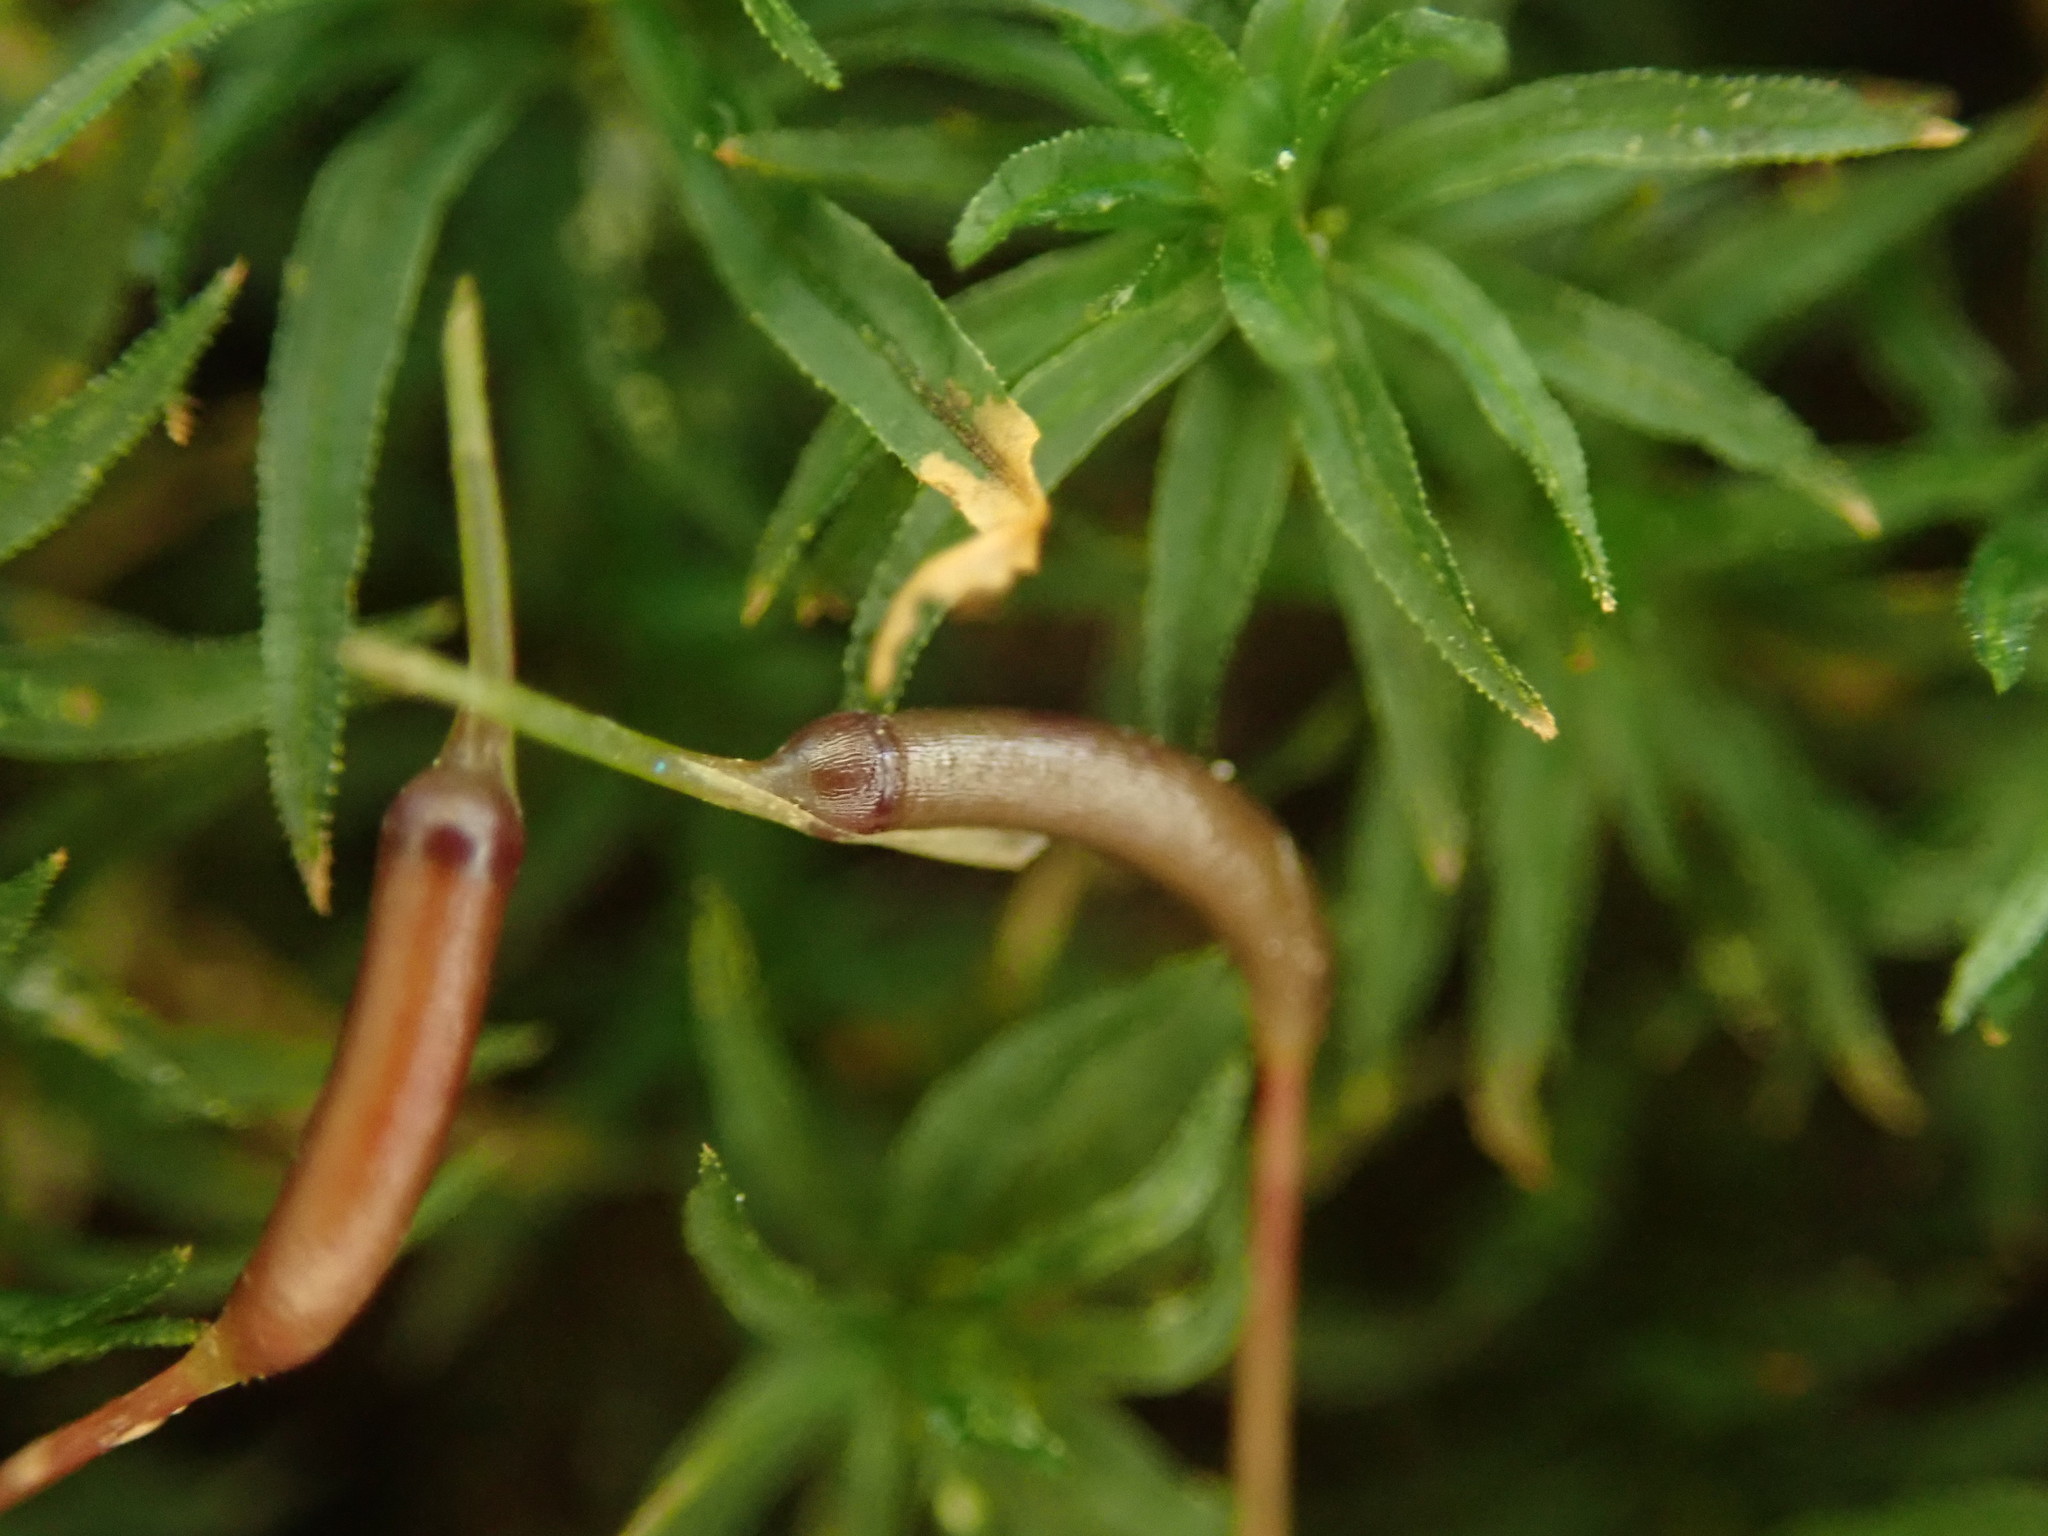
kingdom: Plantae
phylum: Bryophyta
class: Polytrichopsida
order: Polytrichales
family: Polytrichaceae
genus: Atrichum
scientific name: Atrichum undulatum
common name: Common smoothcap
